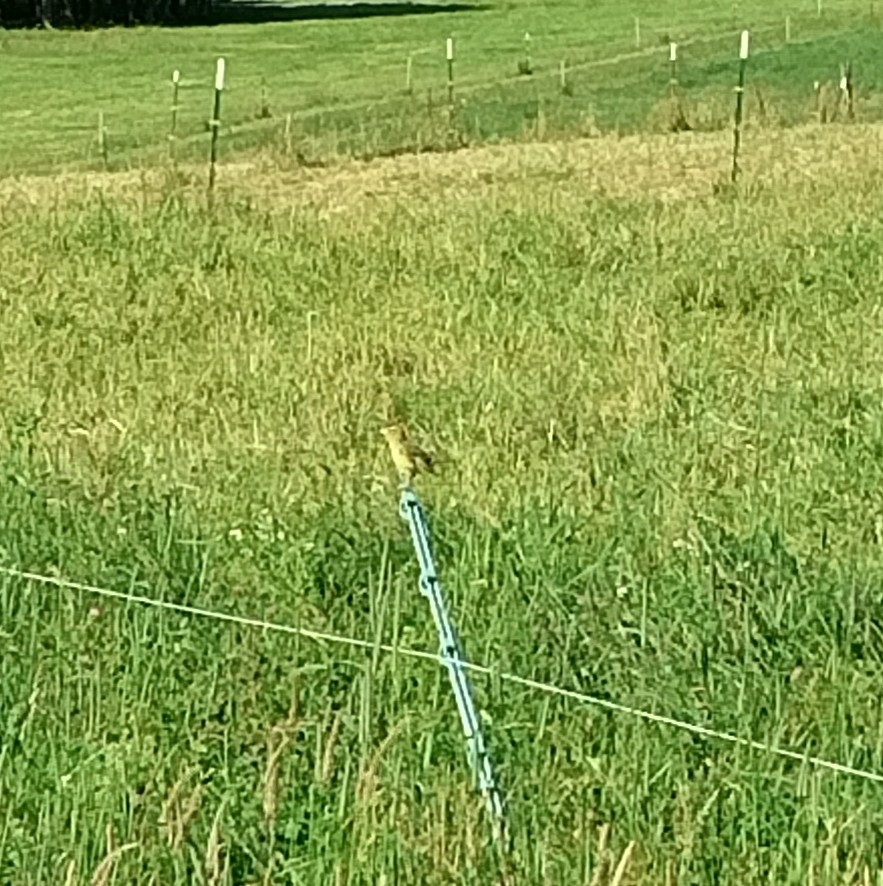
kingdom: Animalia
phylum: Chordata
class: Aves
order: Passeriformes
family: Icteridae
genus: Dolichonyx
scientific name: Dolichonyx oryzivorus
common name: Bobolink
